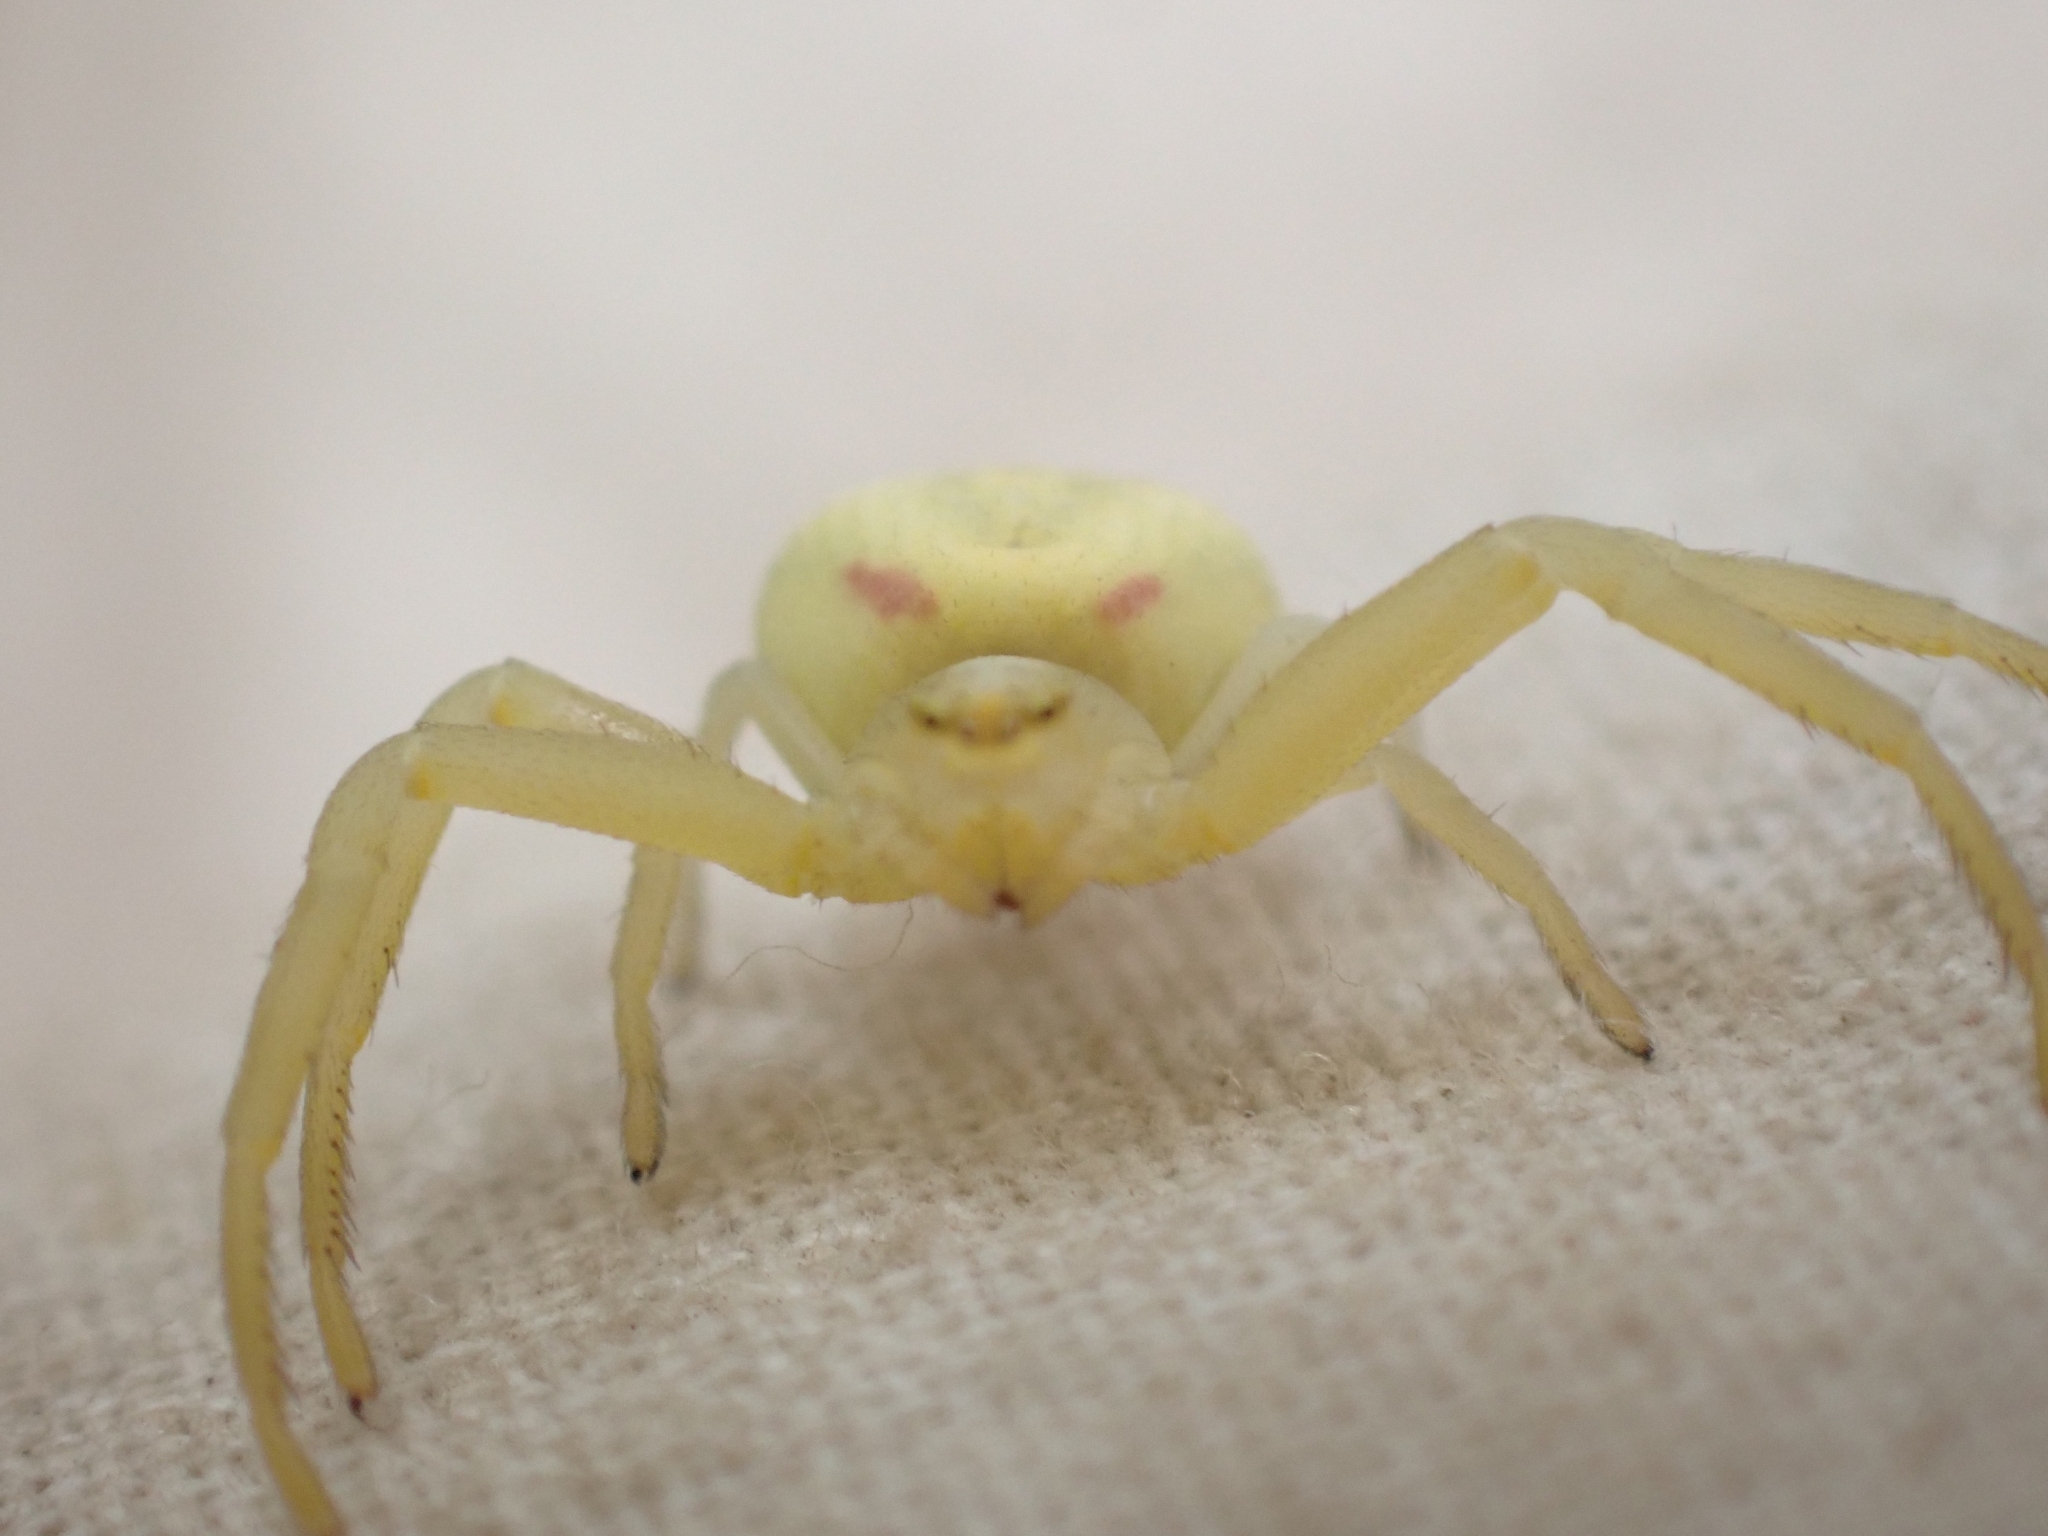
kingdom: Animalia
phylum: Arthropoda
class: Arachnida
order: Araneae
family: Thomisidae
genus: Misumena
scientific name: Misumena vatia
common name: Goldenrod crab spider
